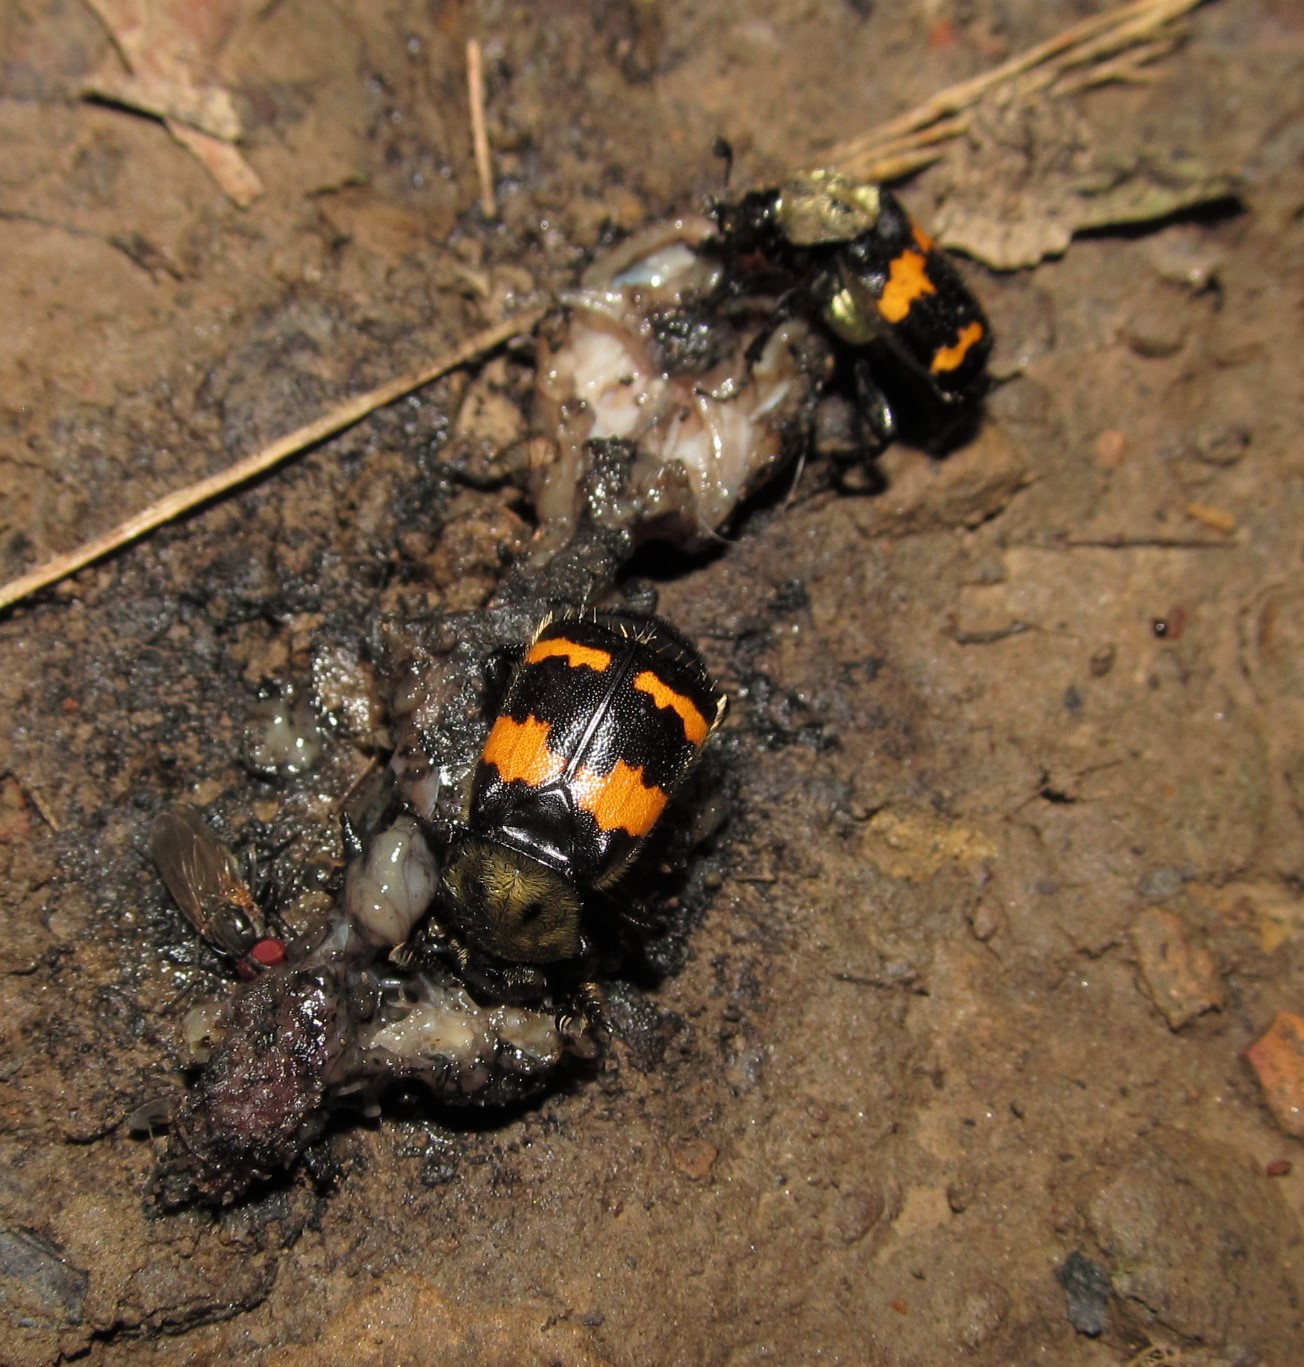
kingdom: Animalia
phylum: Arthropoda
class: Insecta
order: Coleoptera
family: Staphylinidae
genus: Nicrophorus
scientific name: Nicrophorus tomentosus
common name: Tomentose burying beetle
